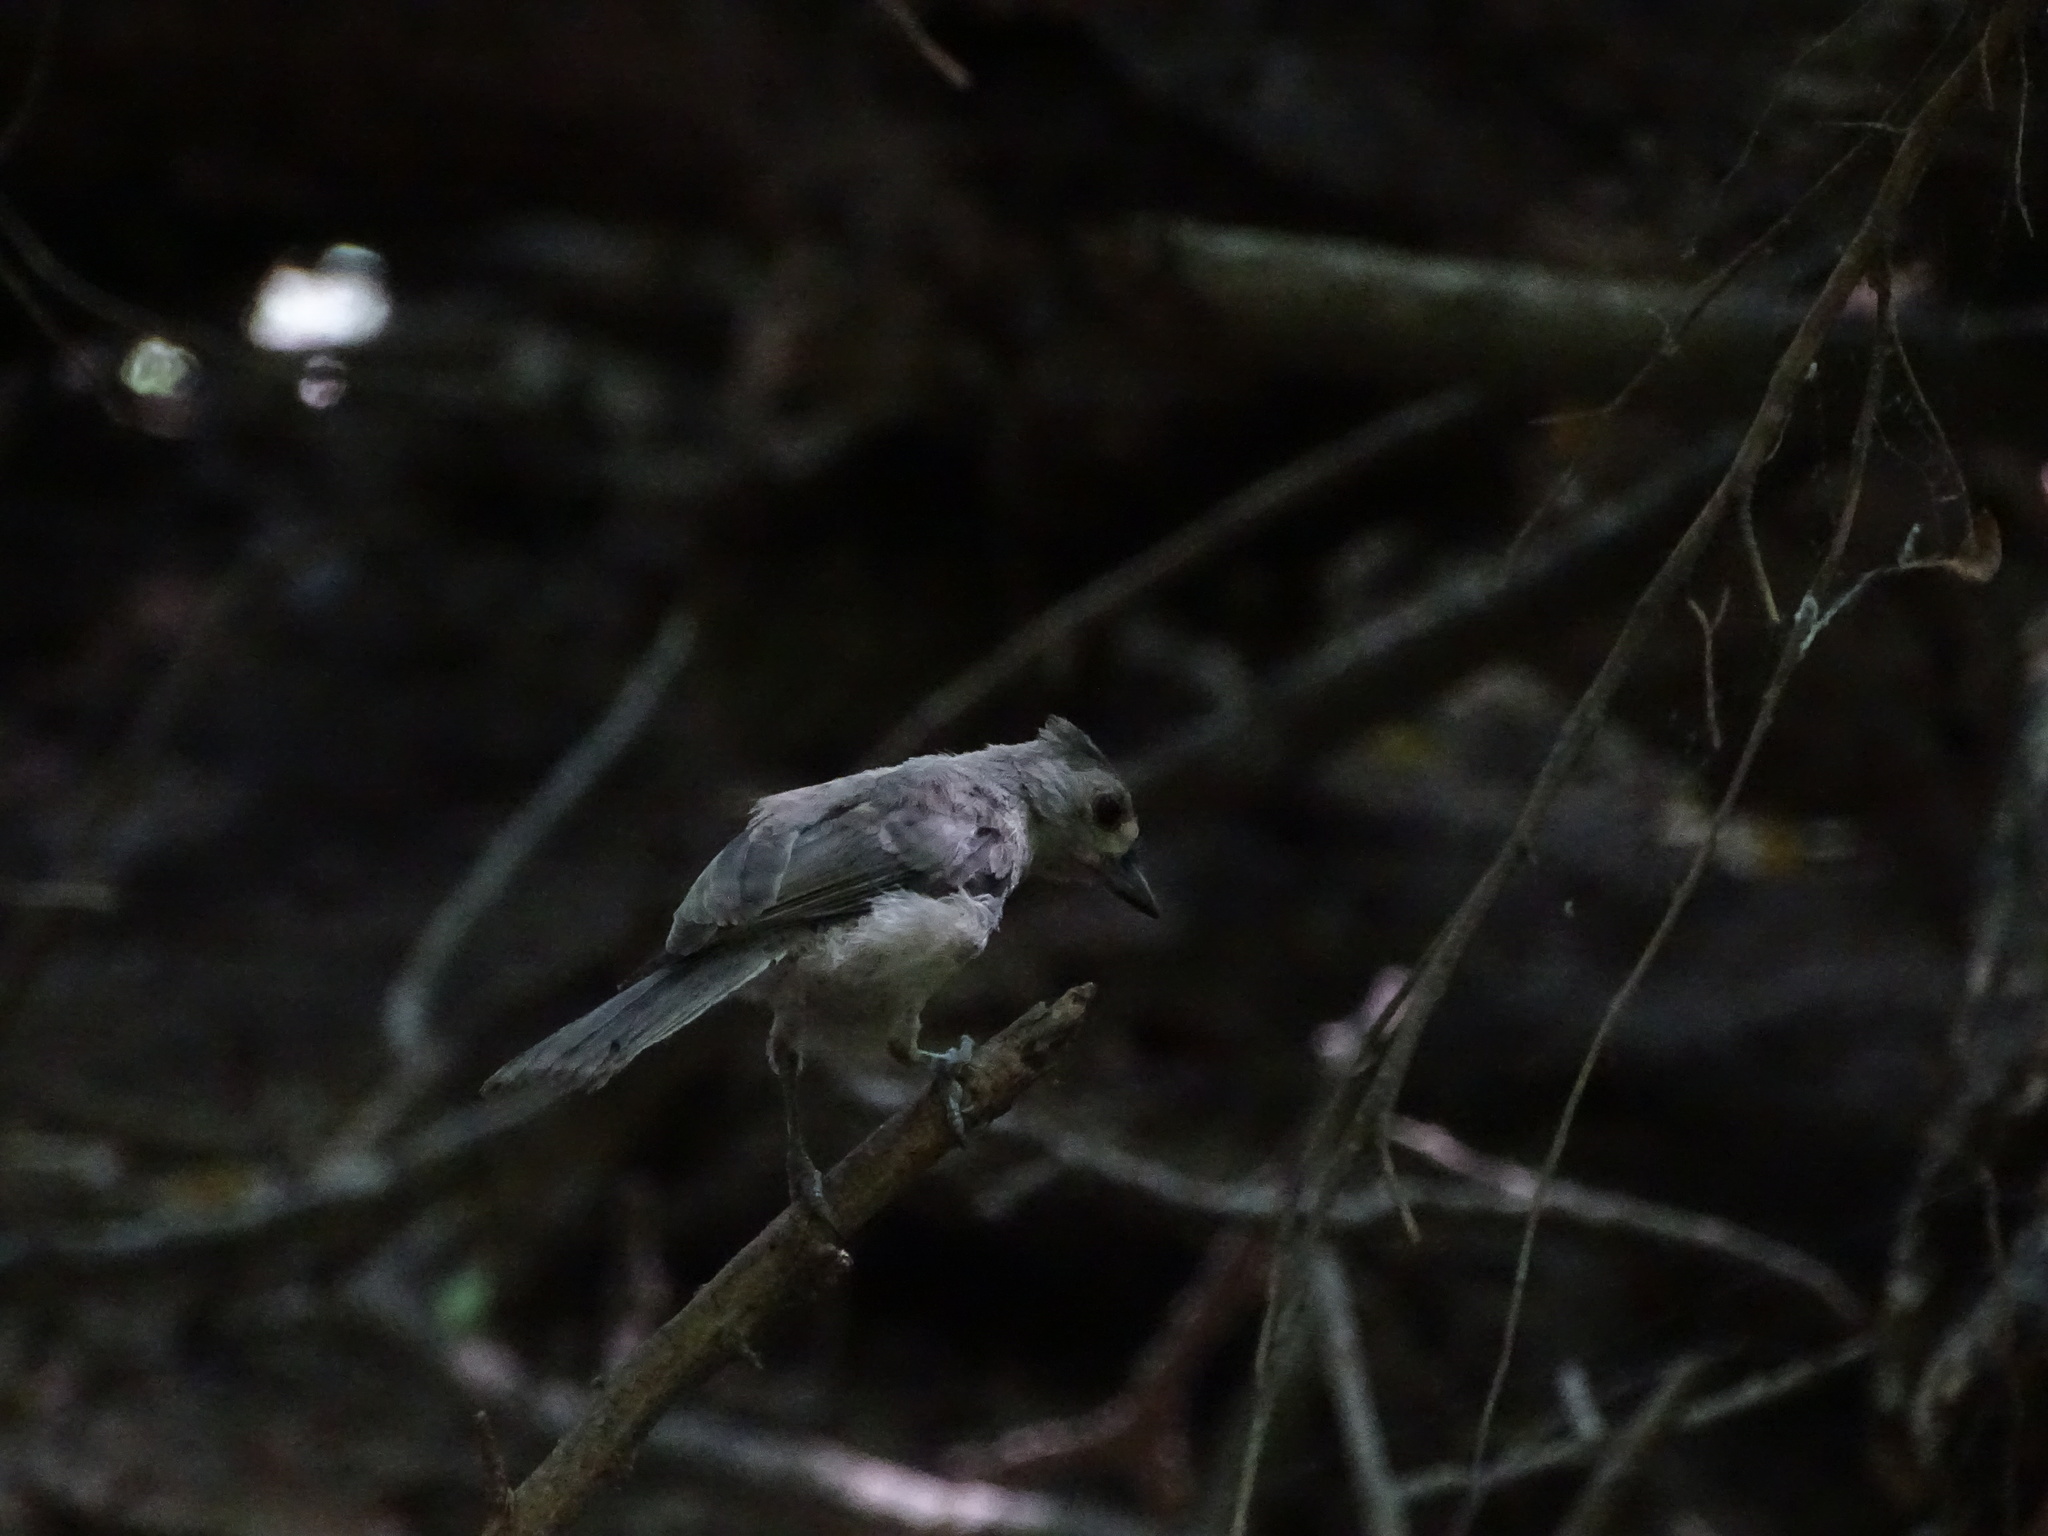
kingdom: Animalia
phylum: Chordata
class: Aves
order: Passeriformes
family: Paridae
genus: Baeolophus
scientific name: Baeolophus bicolor
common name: Tufted titmouse
